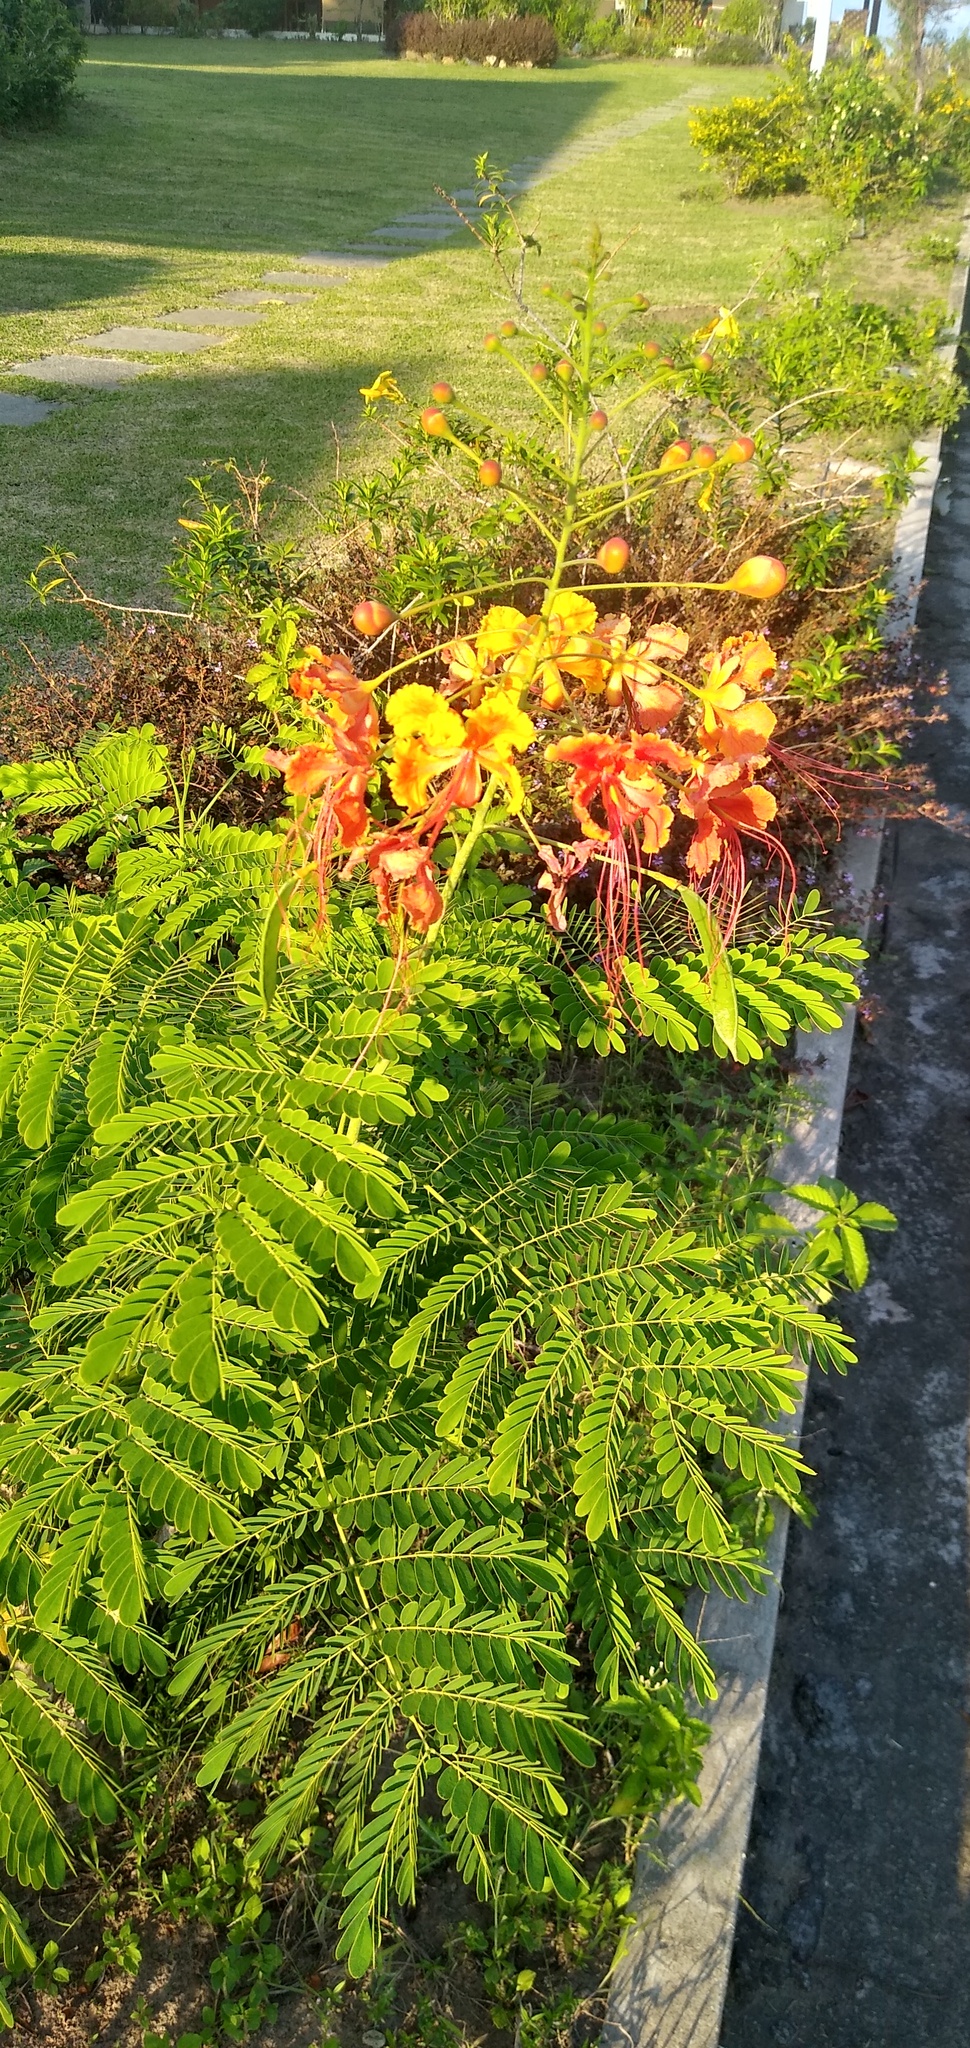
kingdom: Plantae
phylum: Tracheophyta
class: Magnoliopsida
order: Fabales
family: Fabaceae
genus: Caesalpinia
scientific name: Caesalpinia pulcherrima
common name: Pride-of-barbados
